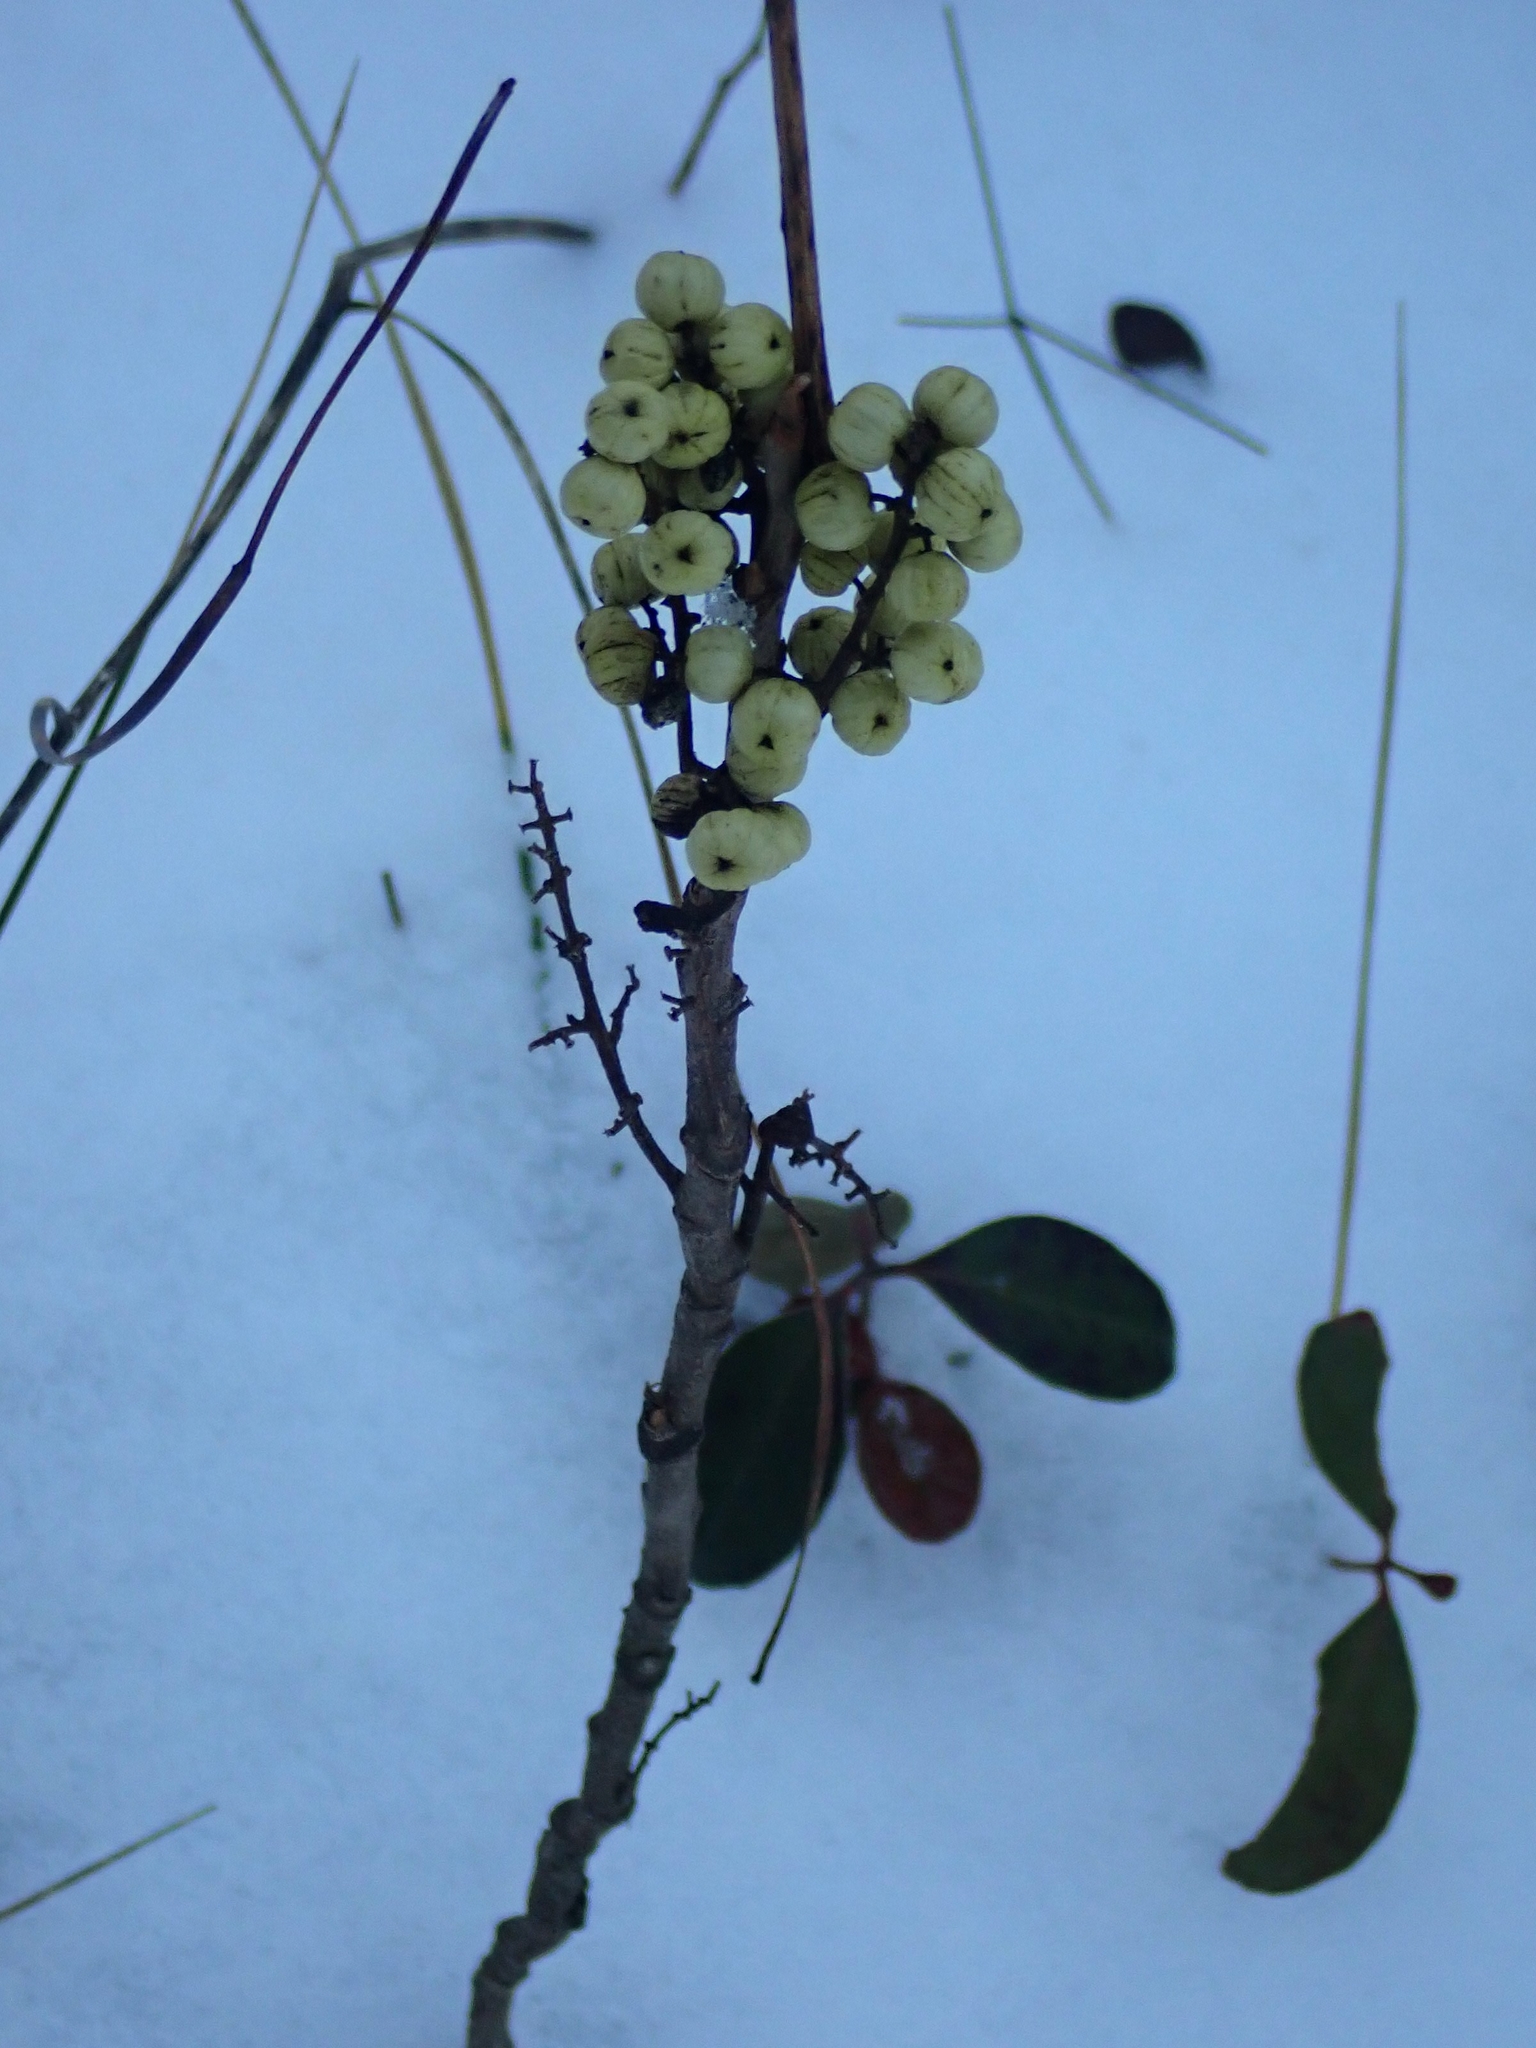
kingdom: Plantae
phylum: Tracheophyta
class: Magnoliopsida
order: Sapindales
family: Anacardiaceae
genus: Toxicodendron
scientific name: Toxicodendron rydbergii
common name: Rydberg's poison-ivy
